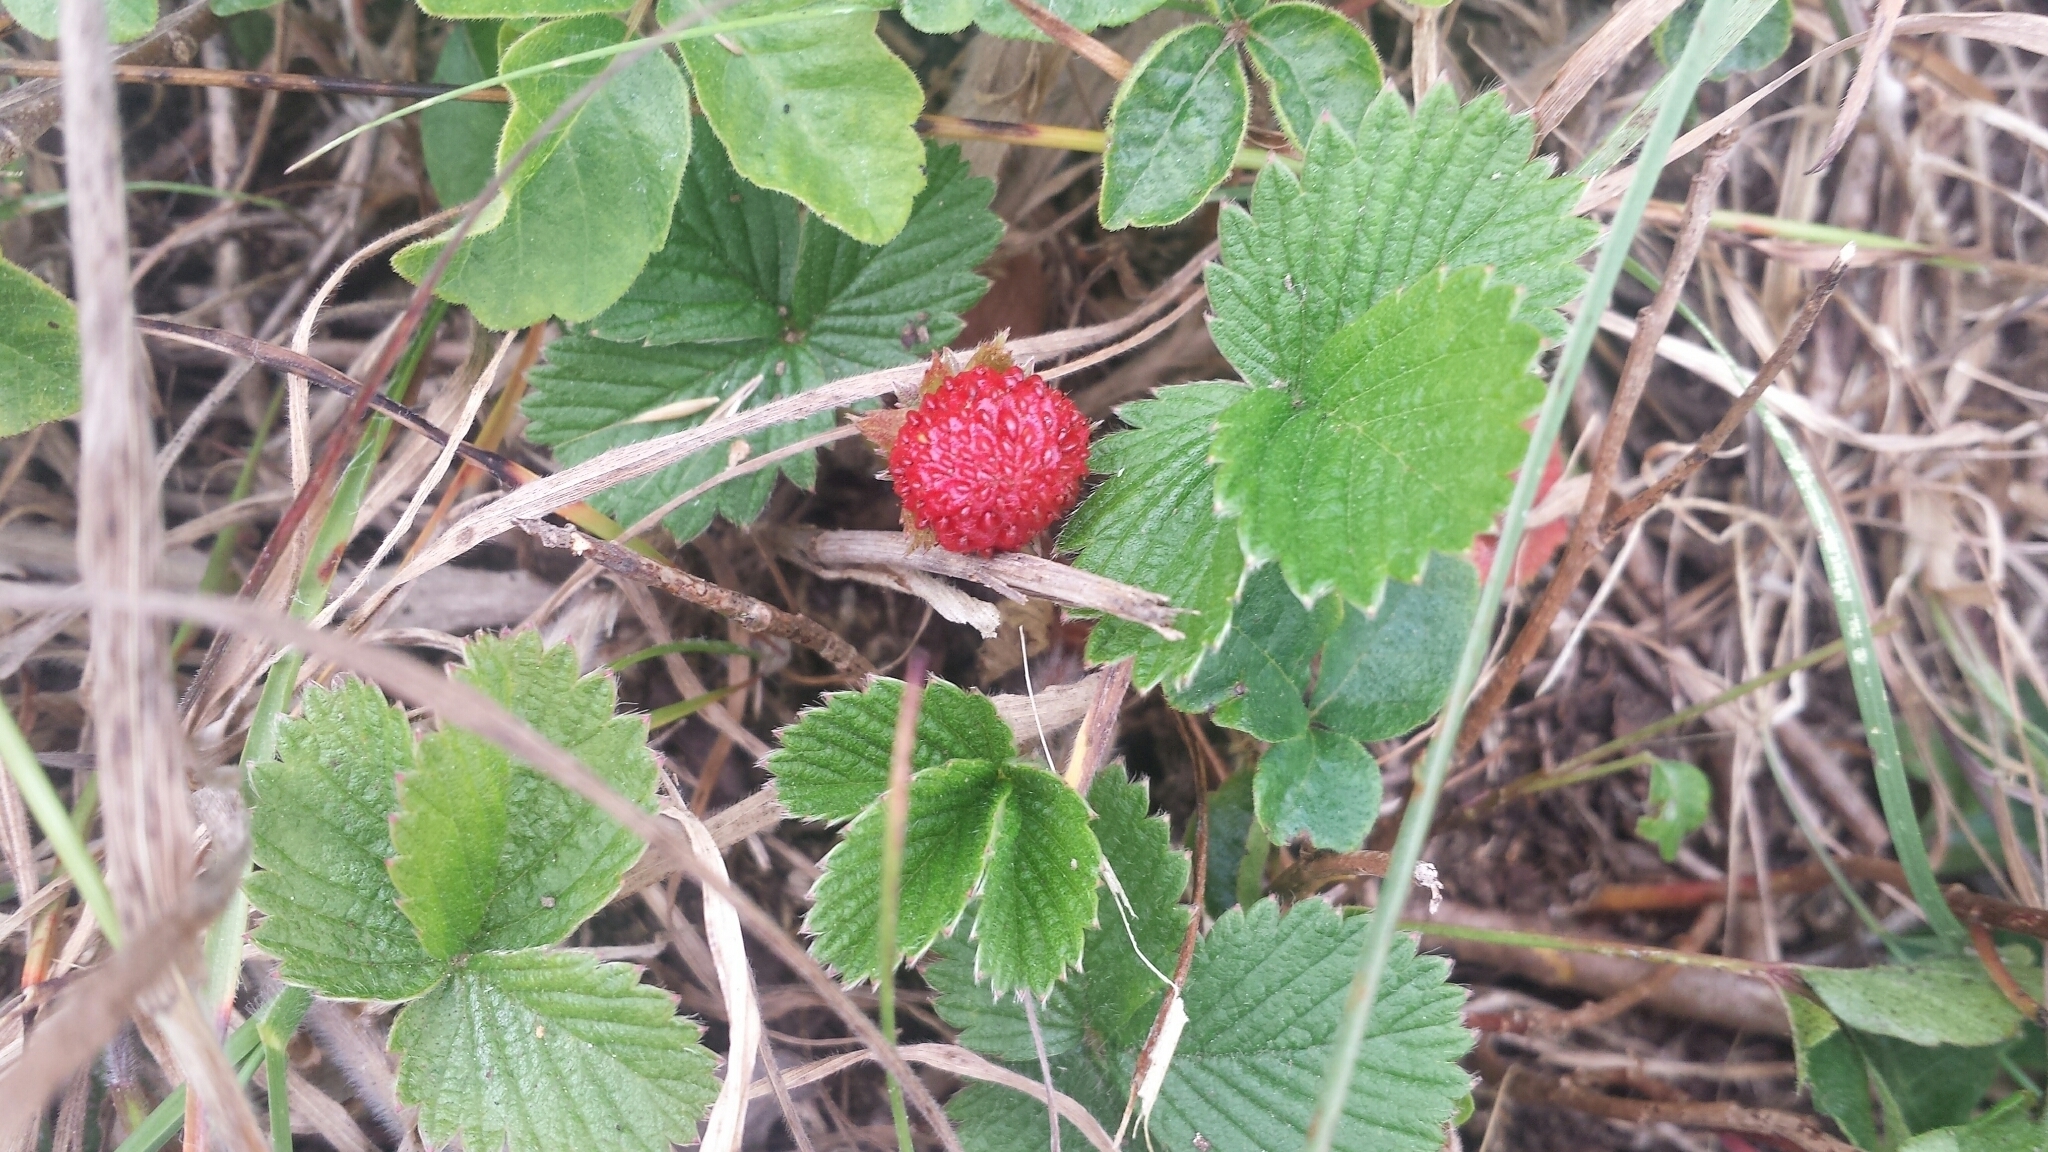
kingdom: Plantae
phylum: Tracheophyta
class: Magnoliopsida
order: Rosales
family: Rosaceae
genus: Fragaria
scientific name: Fragaria vesca
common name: Wild strawberry
